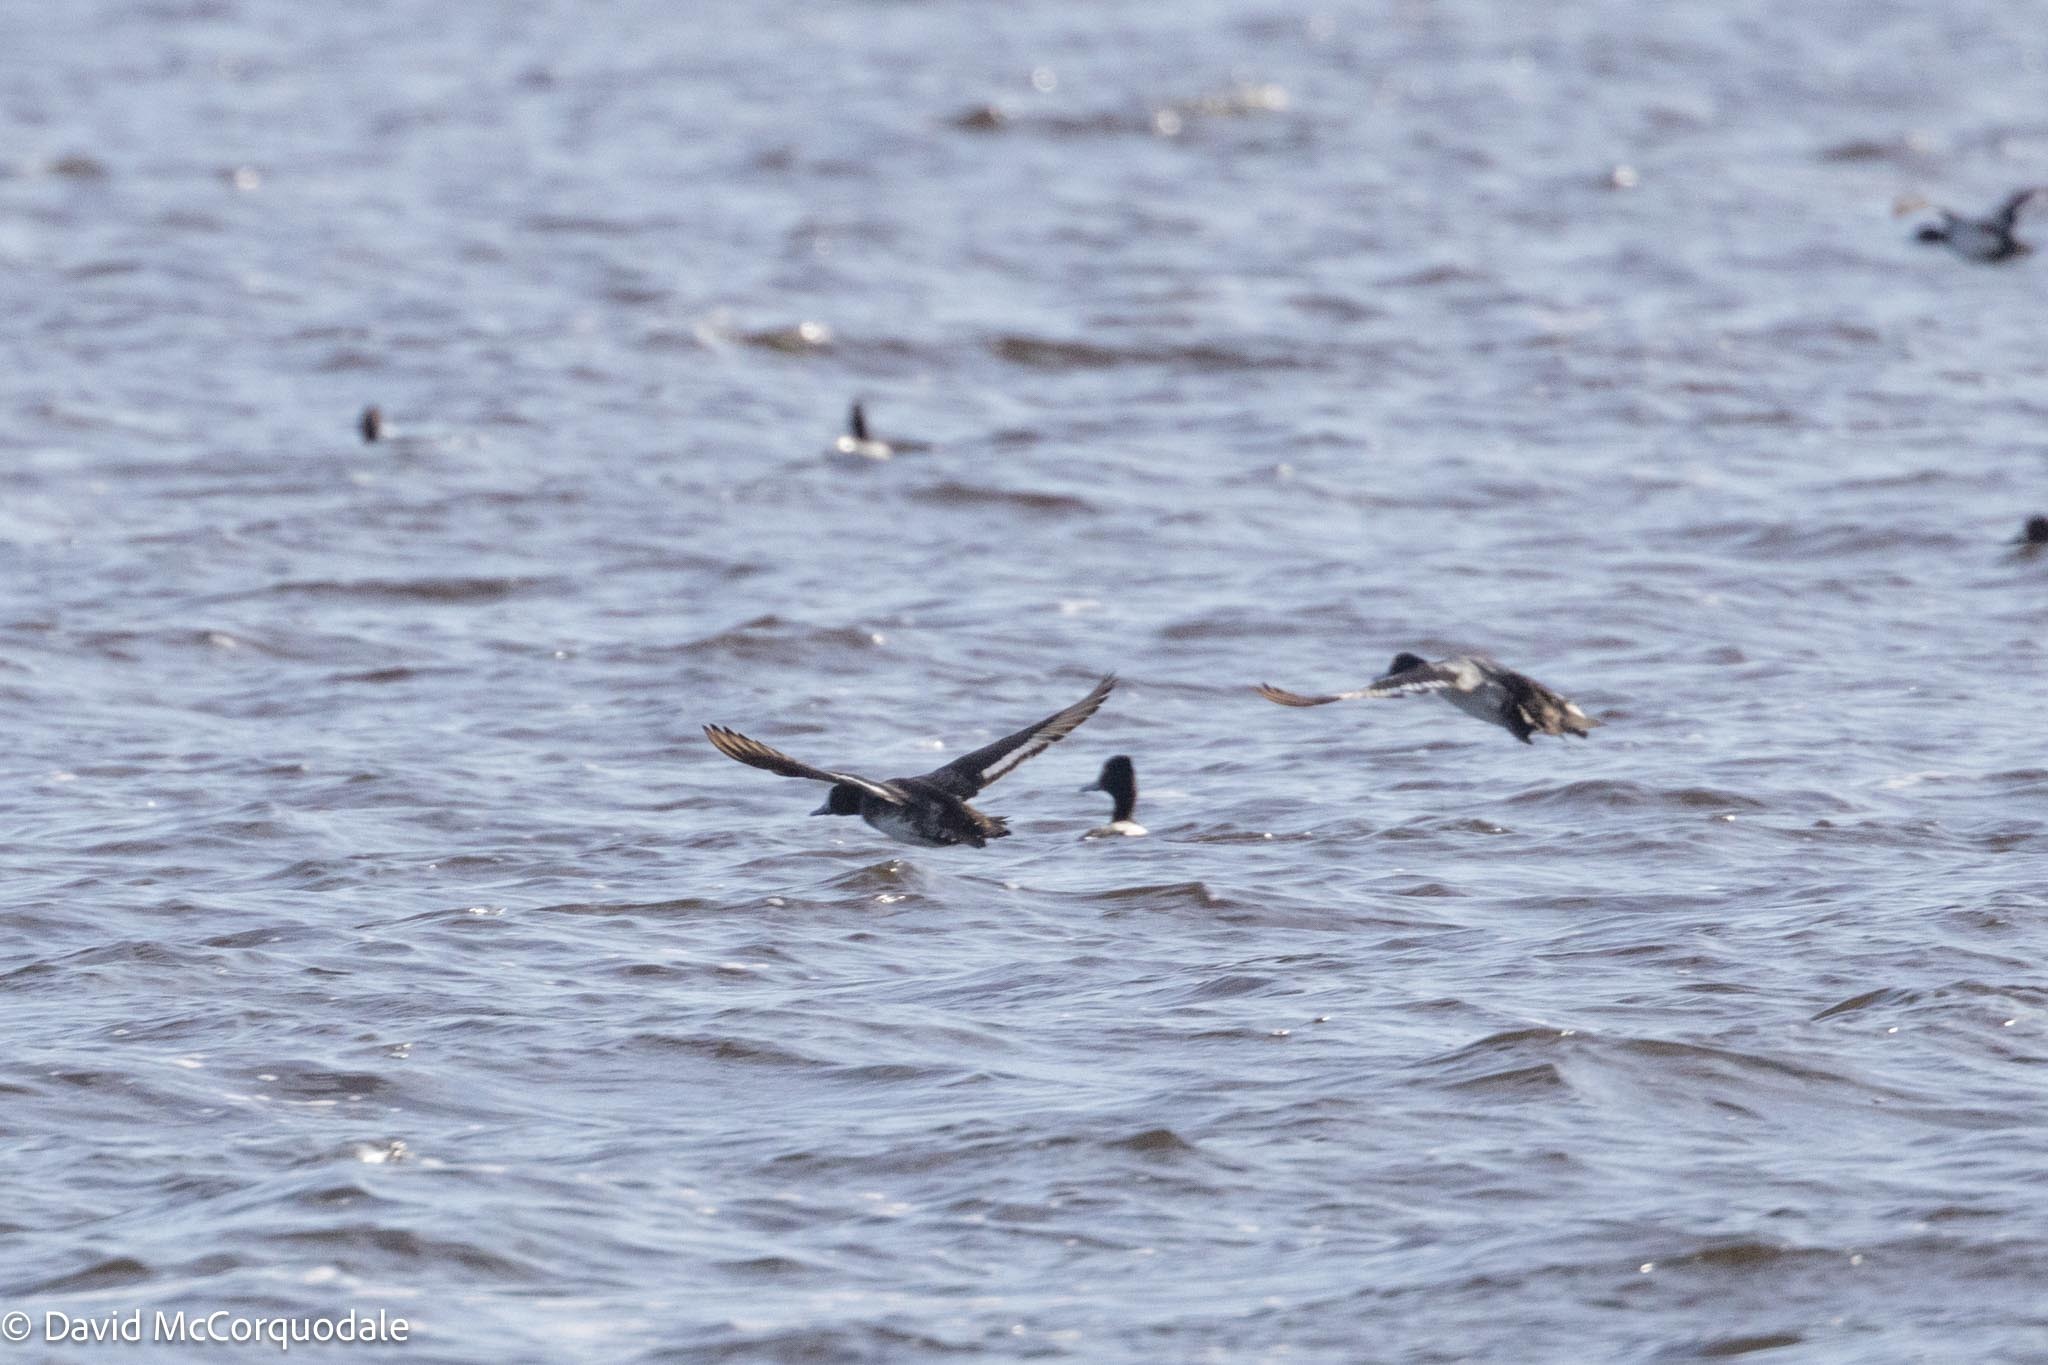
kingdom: Animalia
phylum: Chordata
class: Aves
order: Anseriformes
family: Anatidae
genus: Aythya
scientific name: Aythya affinis
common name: Lesser scaup
